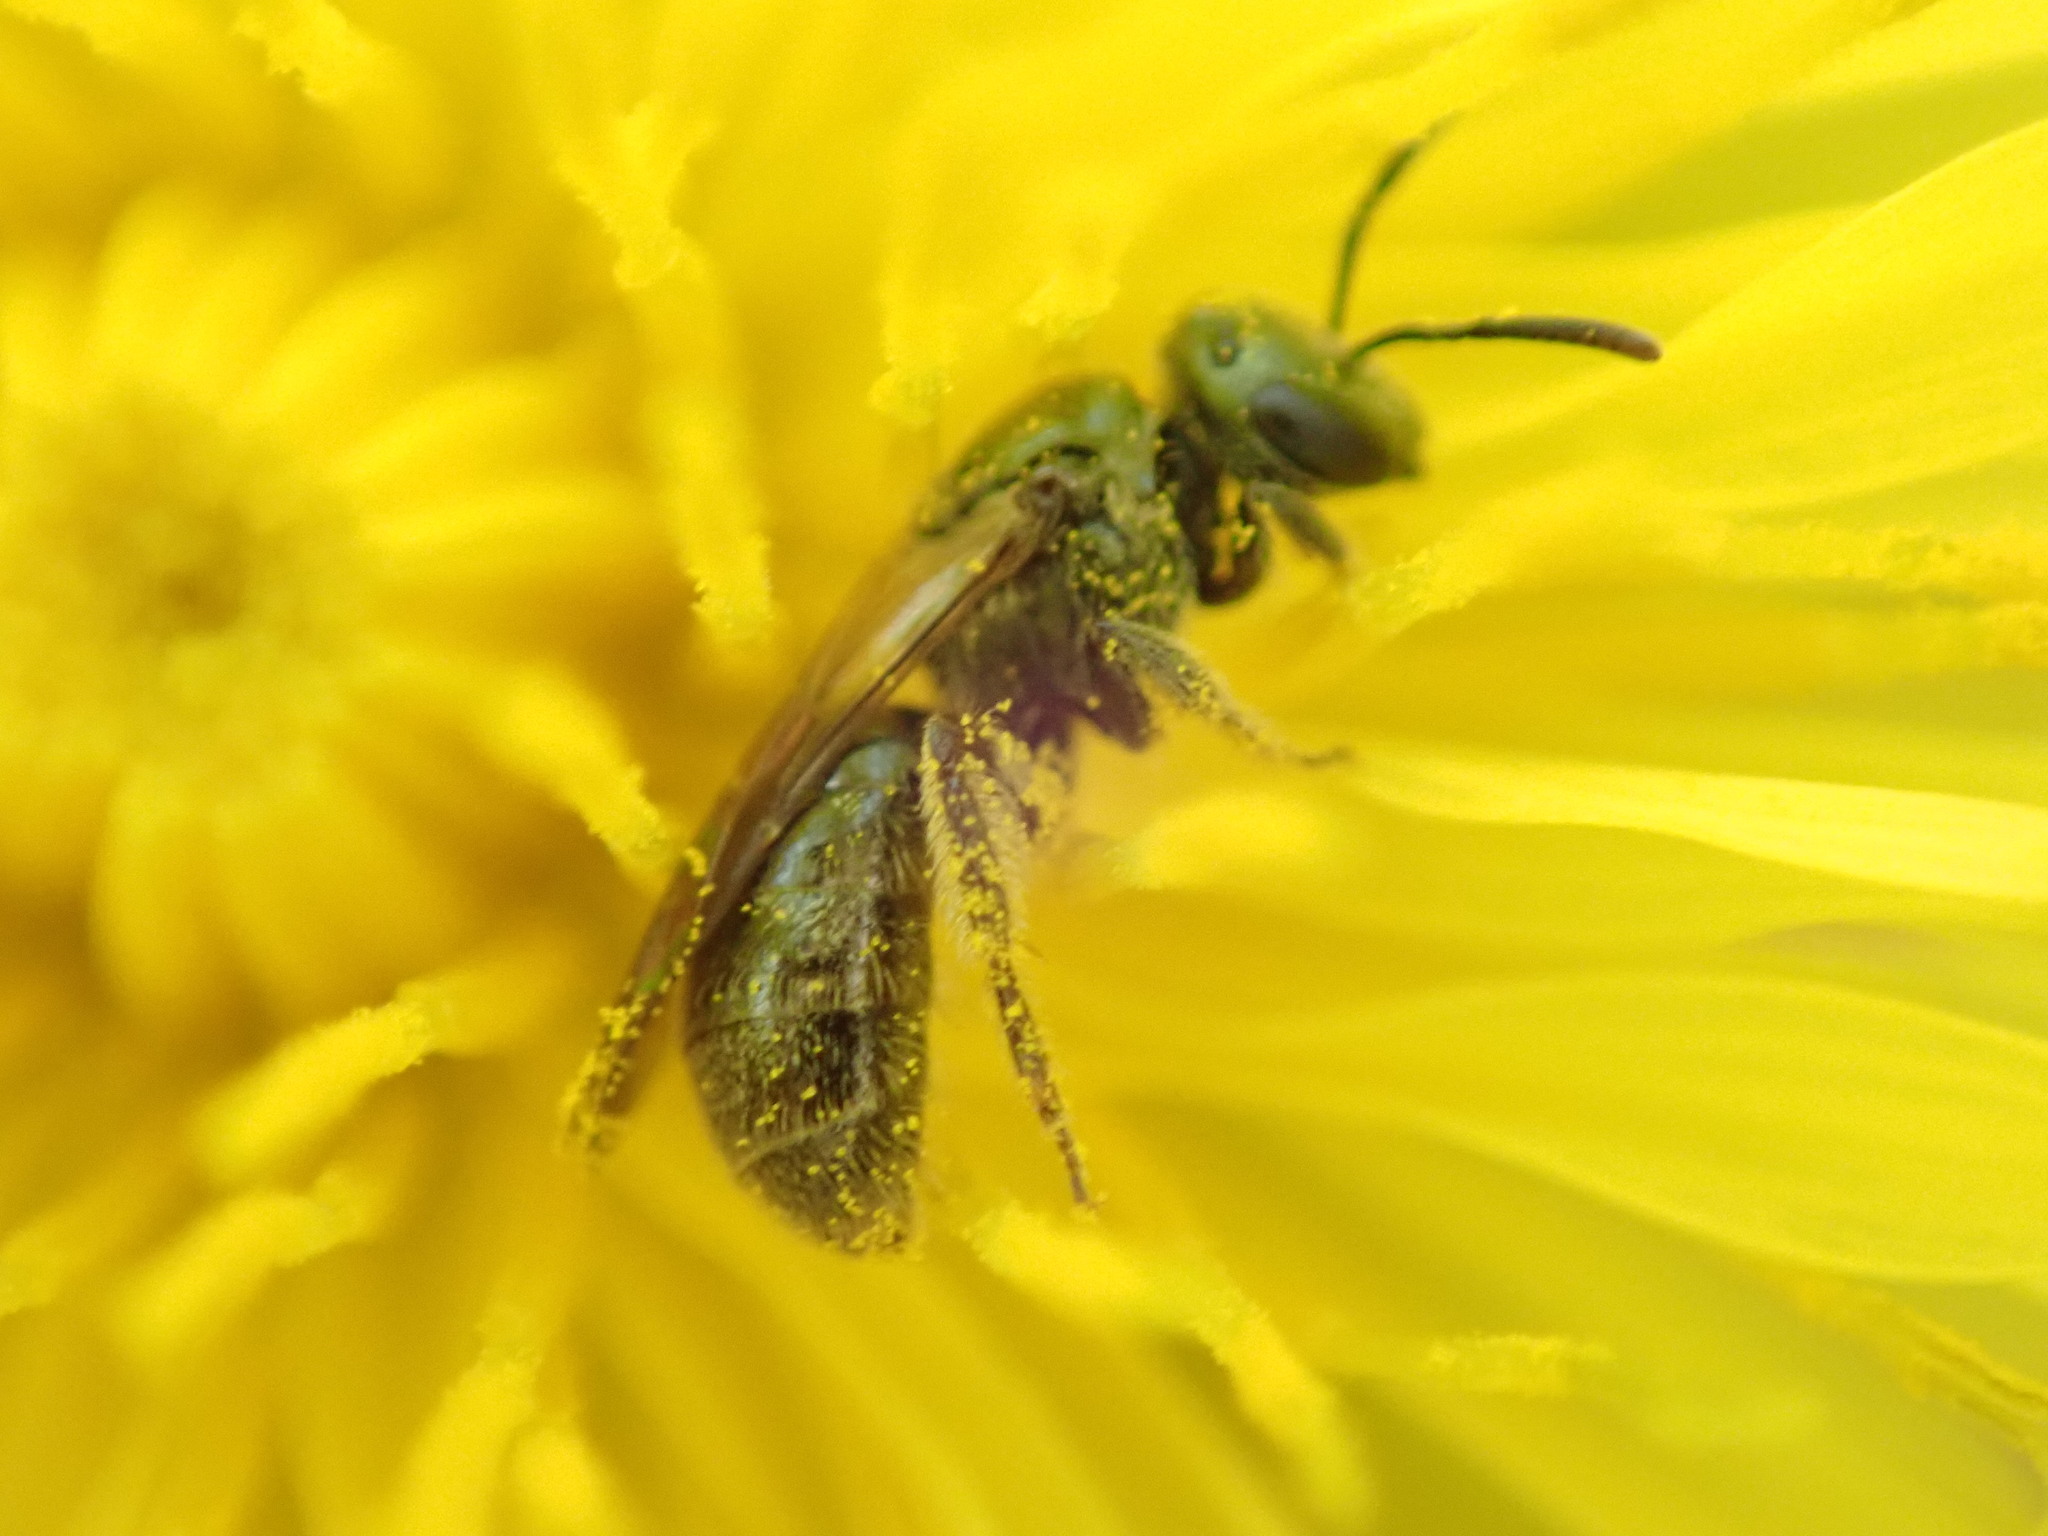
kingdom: Animalia
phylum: Arthropoda
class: Insecta
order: Hymenoptera
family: Halictidae
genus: Dialictus
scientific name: Dialictus
